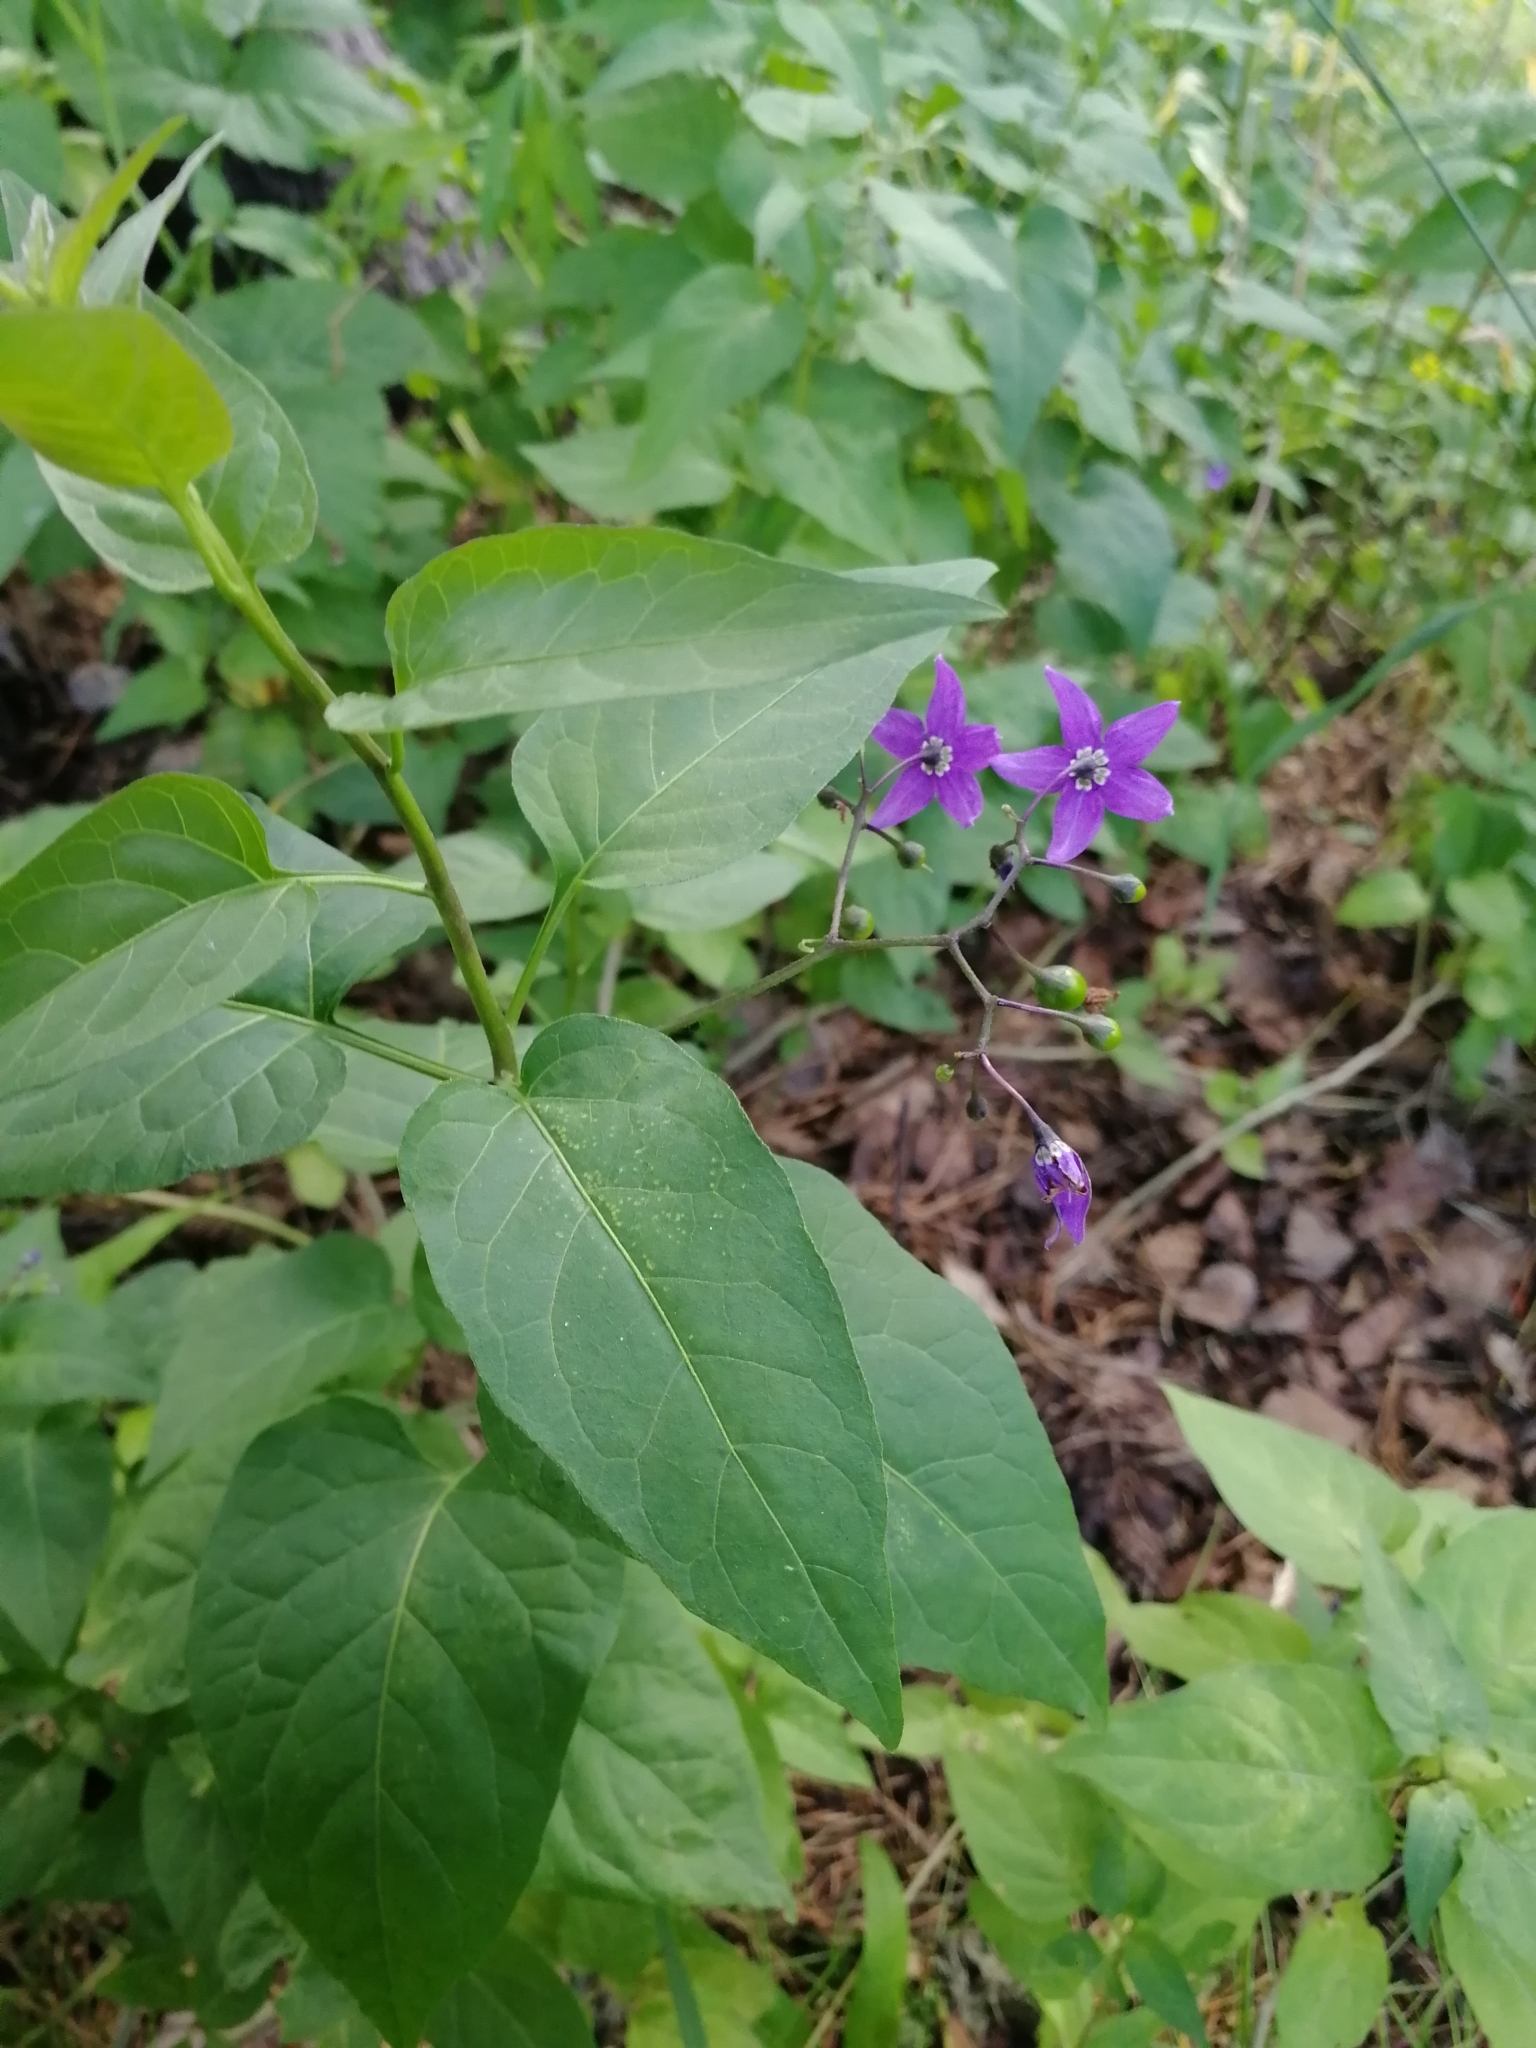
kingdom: Plantae
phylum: Tracheophyta
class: Magnoliopsida
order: Solanales
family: Solanaceae
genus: Solanum
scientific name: Solanum dulcamara
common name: Climbing nightshade
